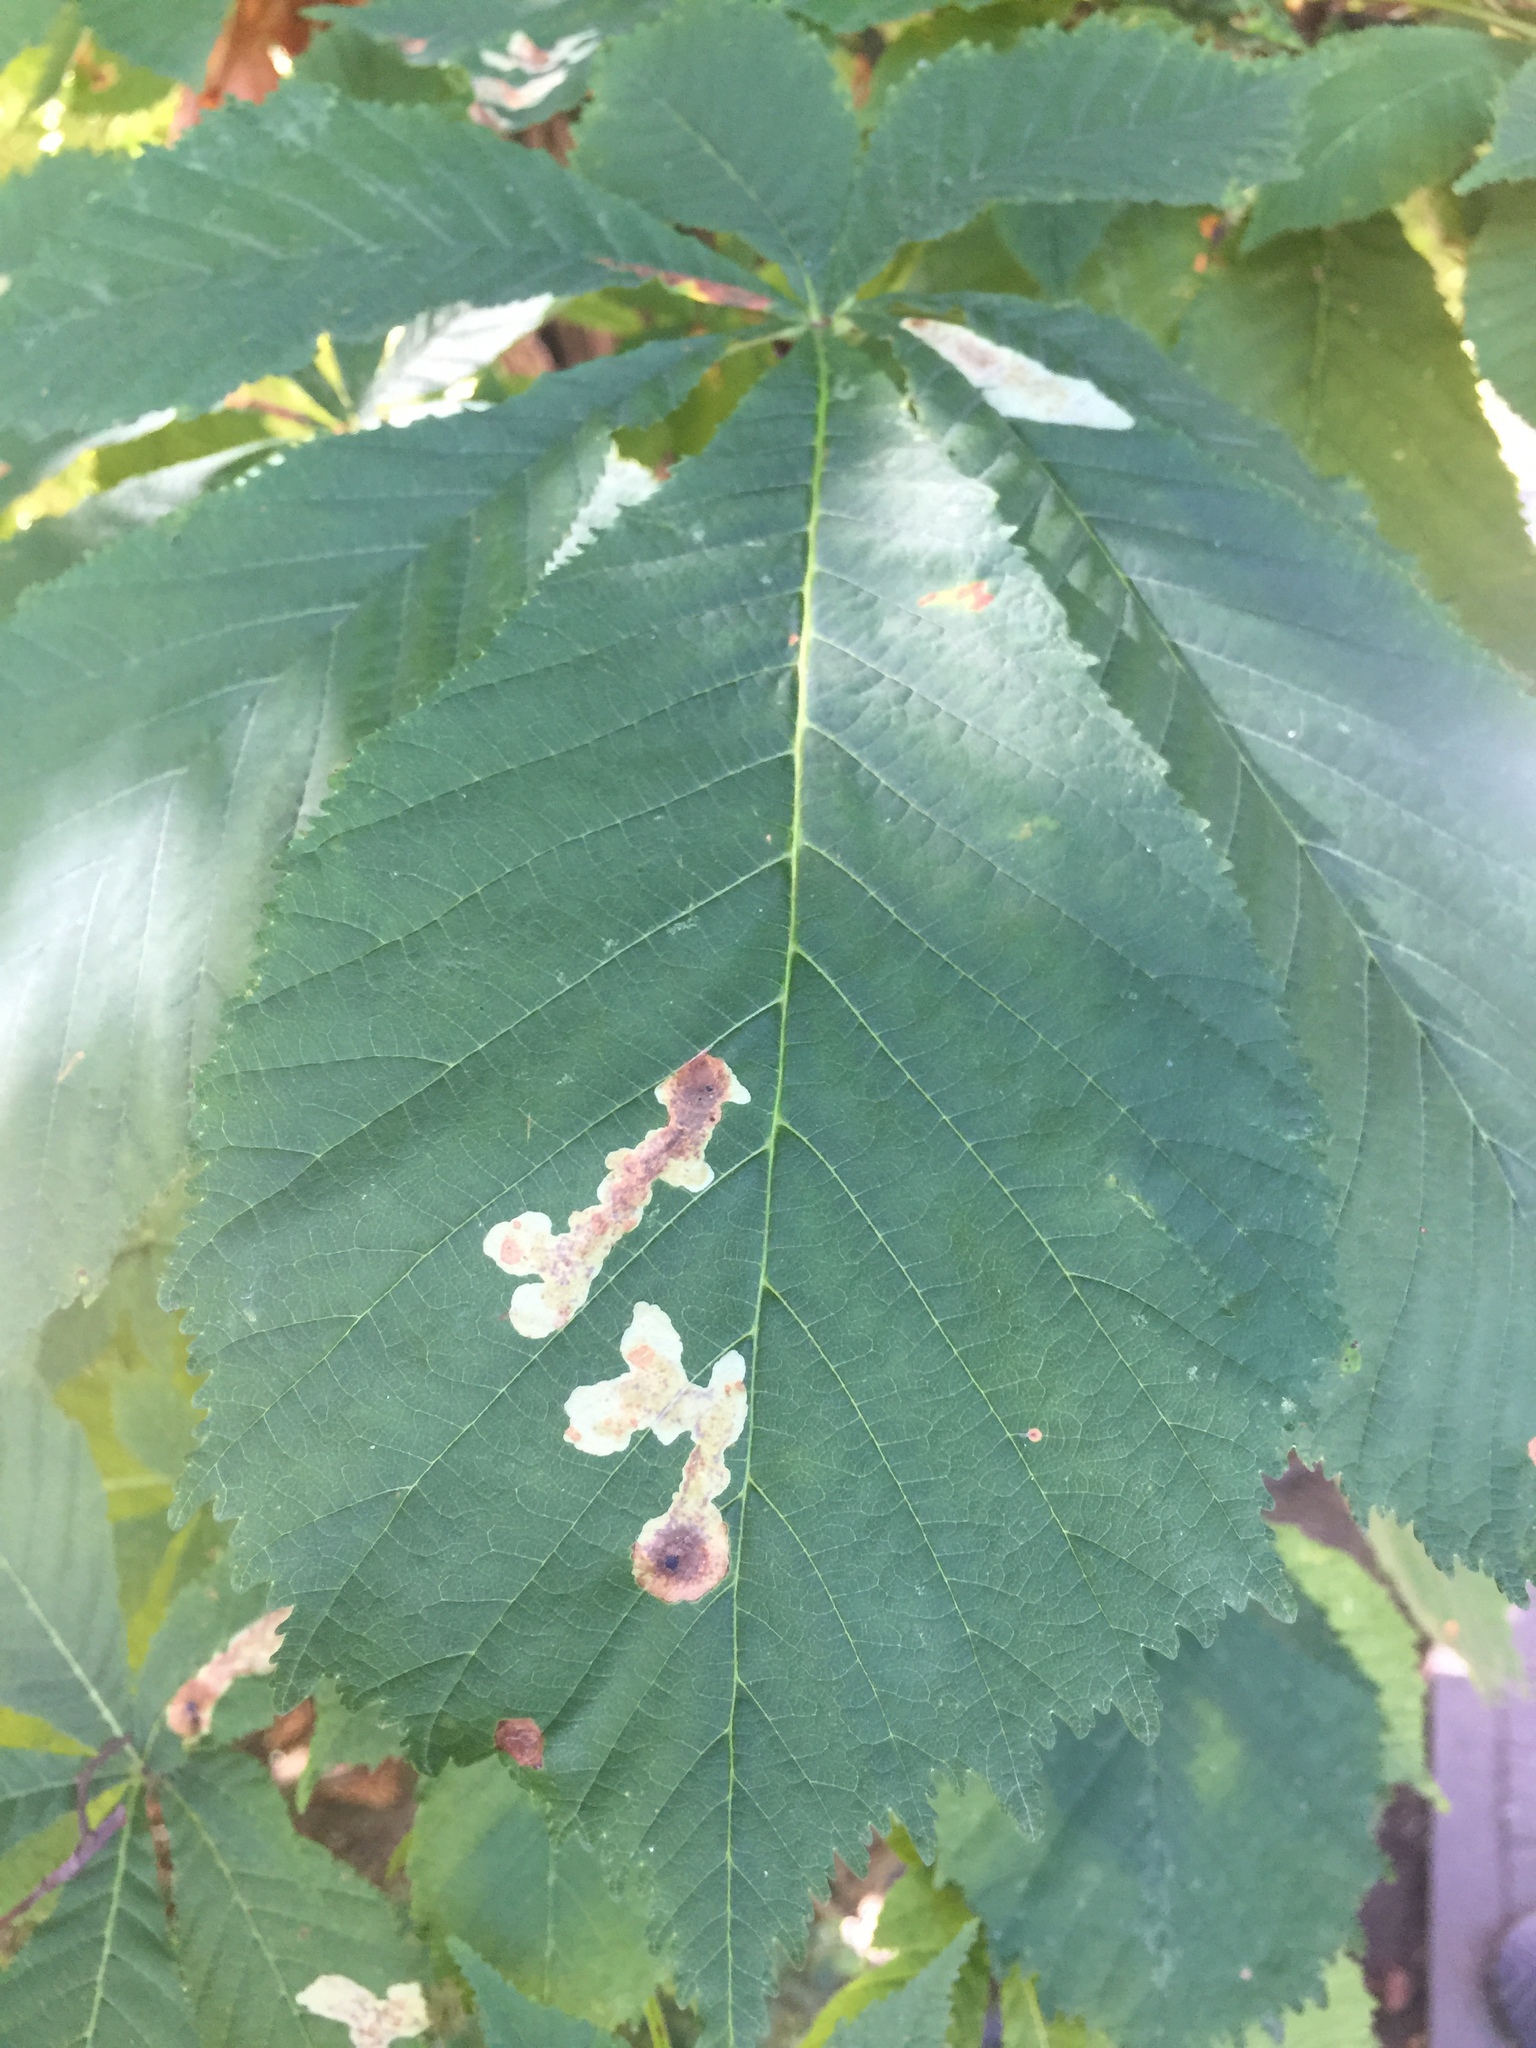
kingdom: Animalia
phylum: Arthropoda
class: Insecta
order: Lepidoptera
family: Gracillariidae
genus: Cameraria
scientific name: Cameraria ohridella
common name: Horse-chestnut leaf-miner
